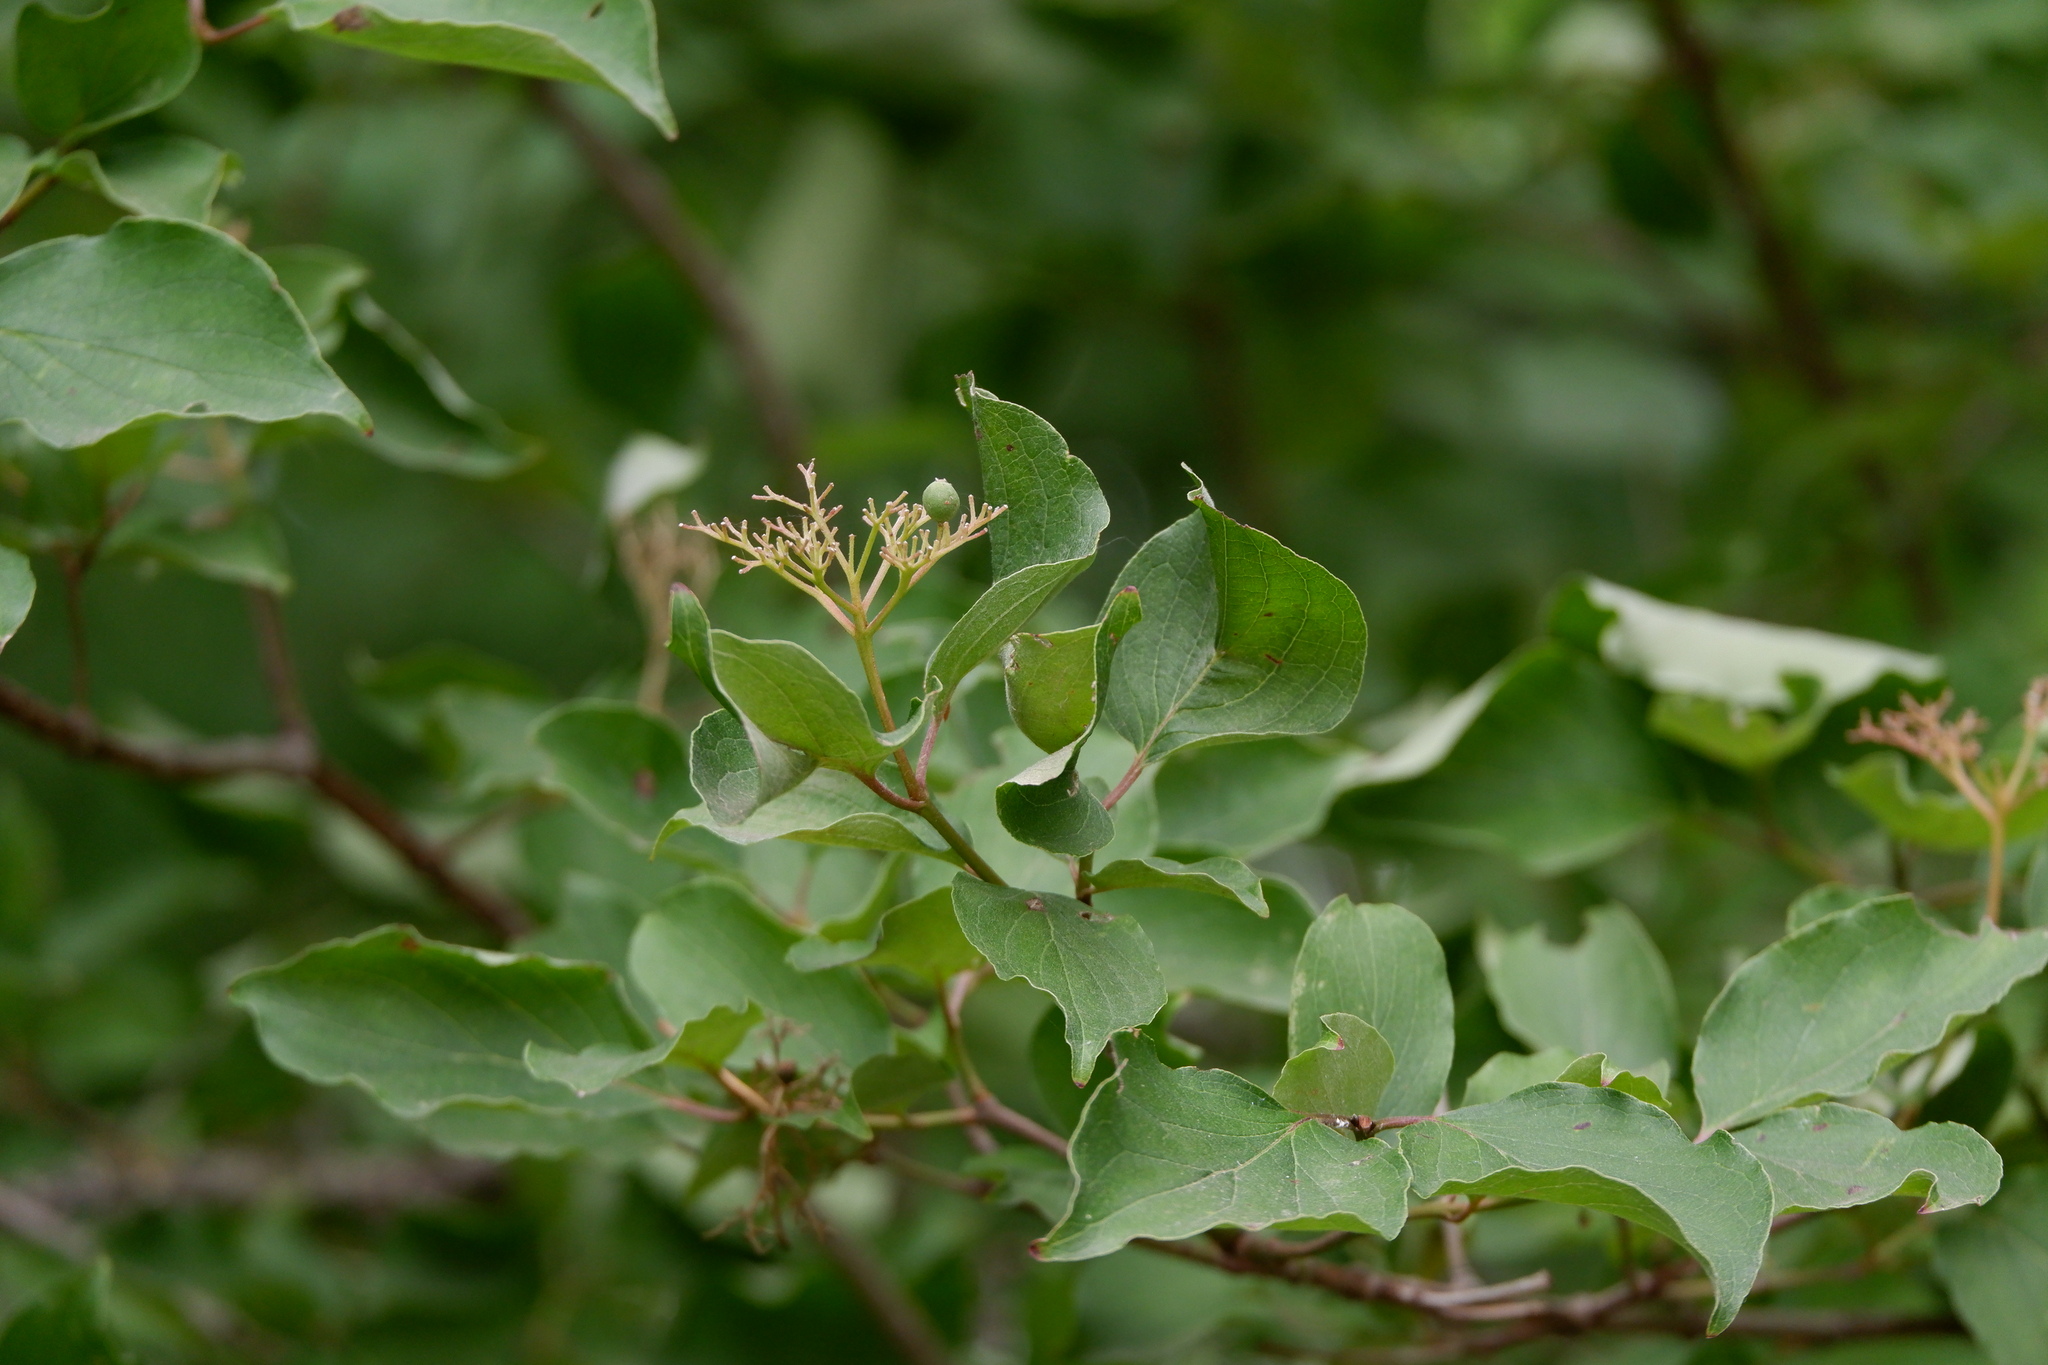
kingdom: Plantae
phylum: Tracheophyta
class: Magnoliopsida
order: Cornales
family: Cornaceae
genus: Cornus
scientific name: Cornus drummondii
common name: Rough-leaf dogwood
